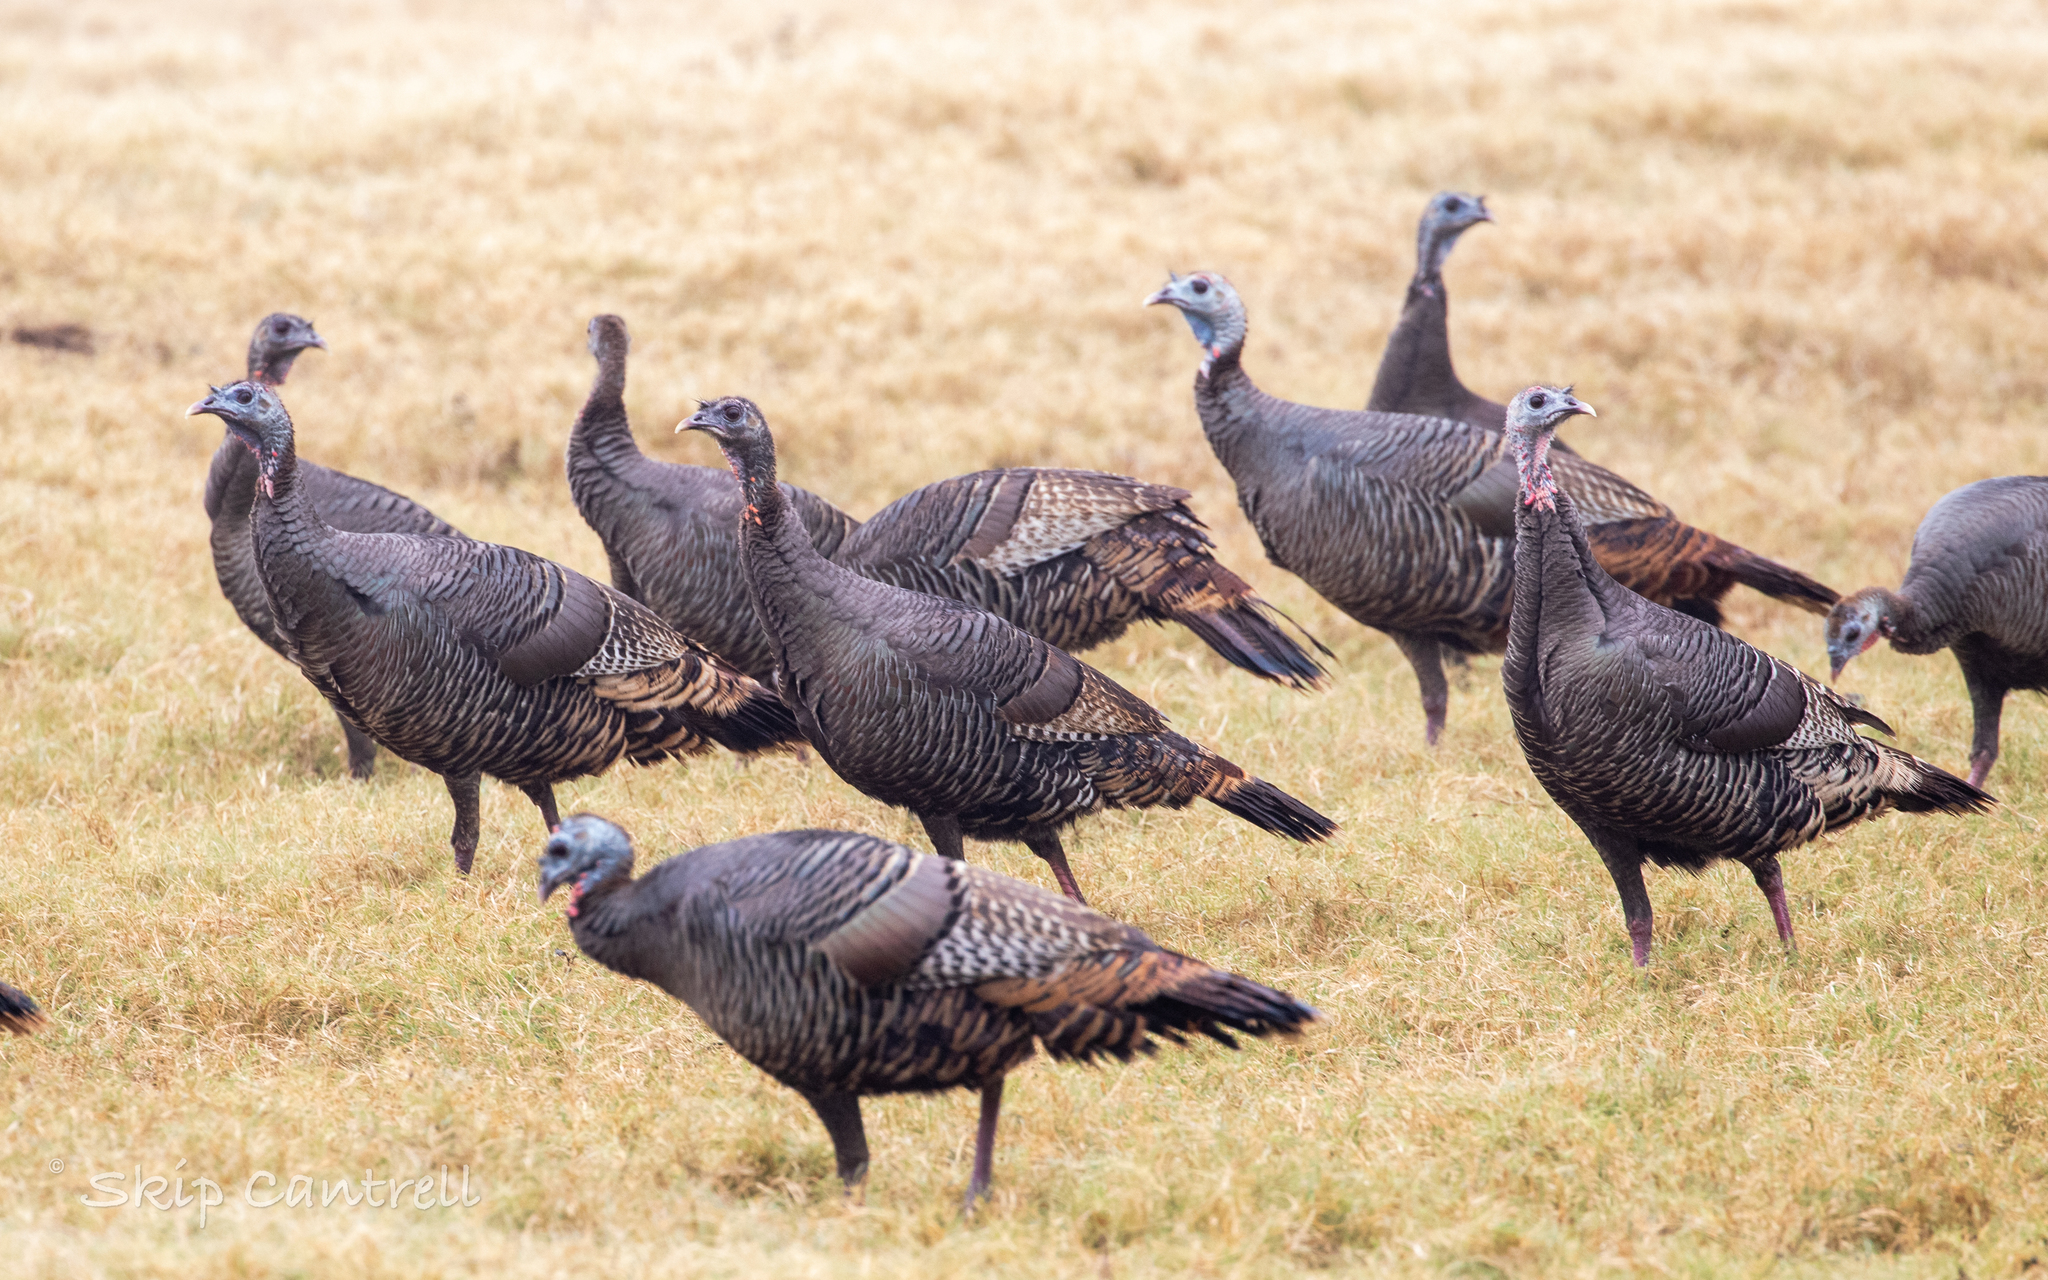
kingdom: Animalia
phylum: Chordata
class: Aves
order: Galliformes
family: Phasianidae
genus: Meleagris
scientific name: Meleagris gallopavo
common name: Wild turkey
